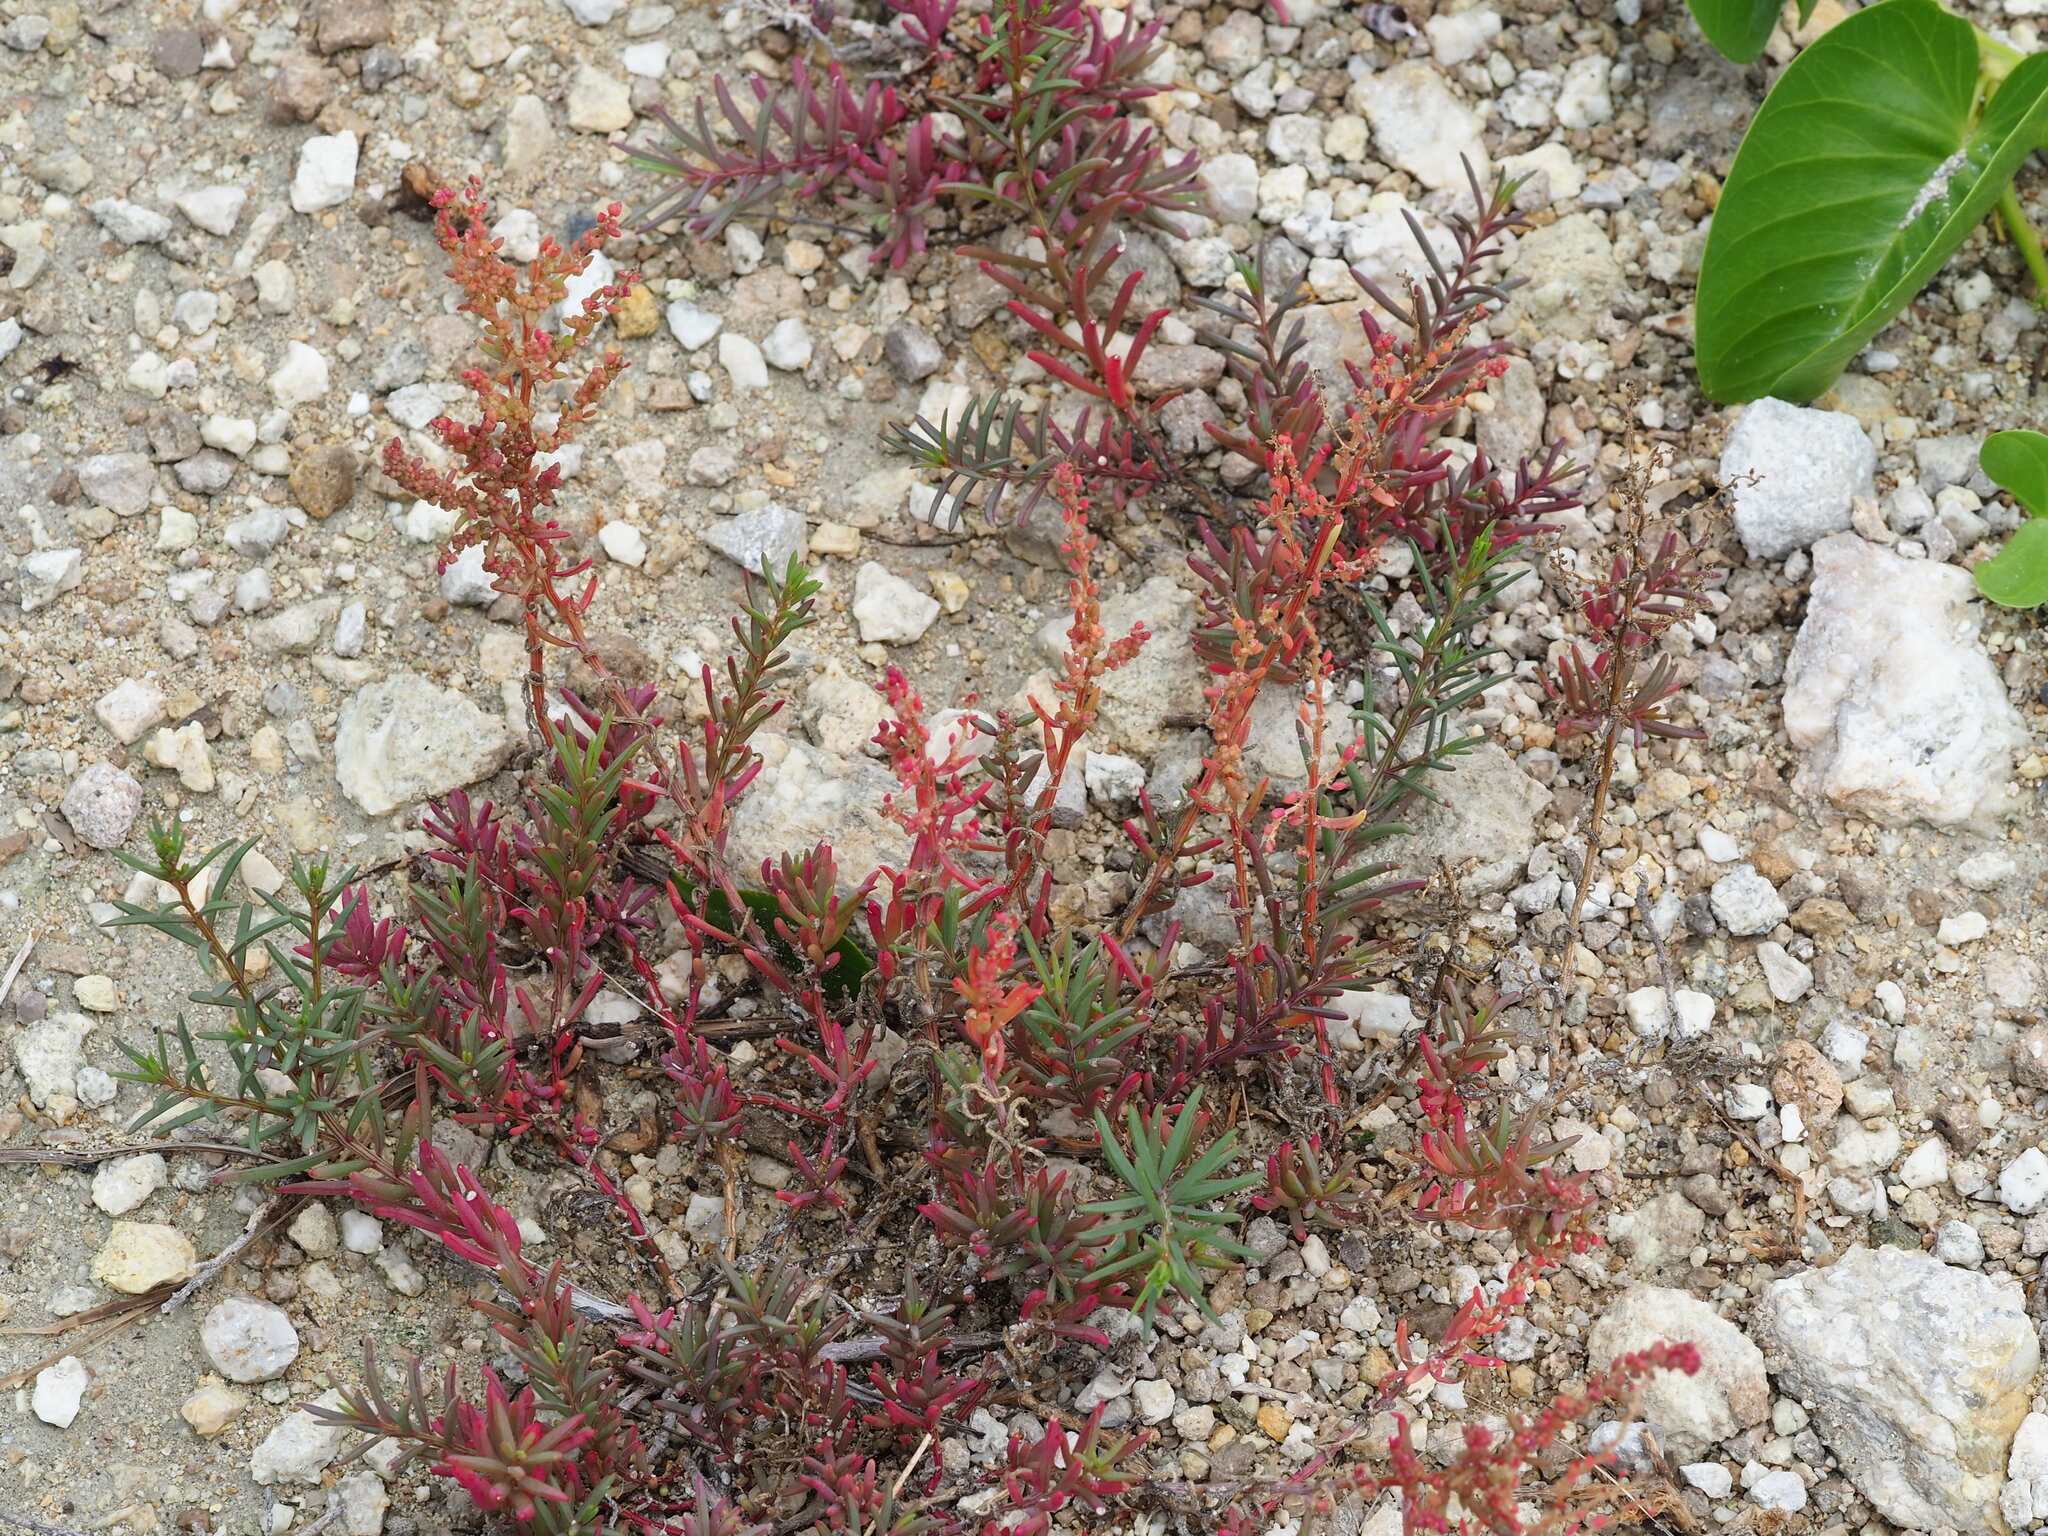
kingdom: Plantae
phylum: Tracheophyta
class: Magnoliopsida
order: Caryophyllales
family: Amaranthaceae
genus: Suaeda
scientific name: Suaeda maritima
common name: Annual sea-blite
